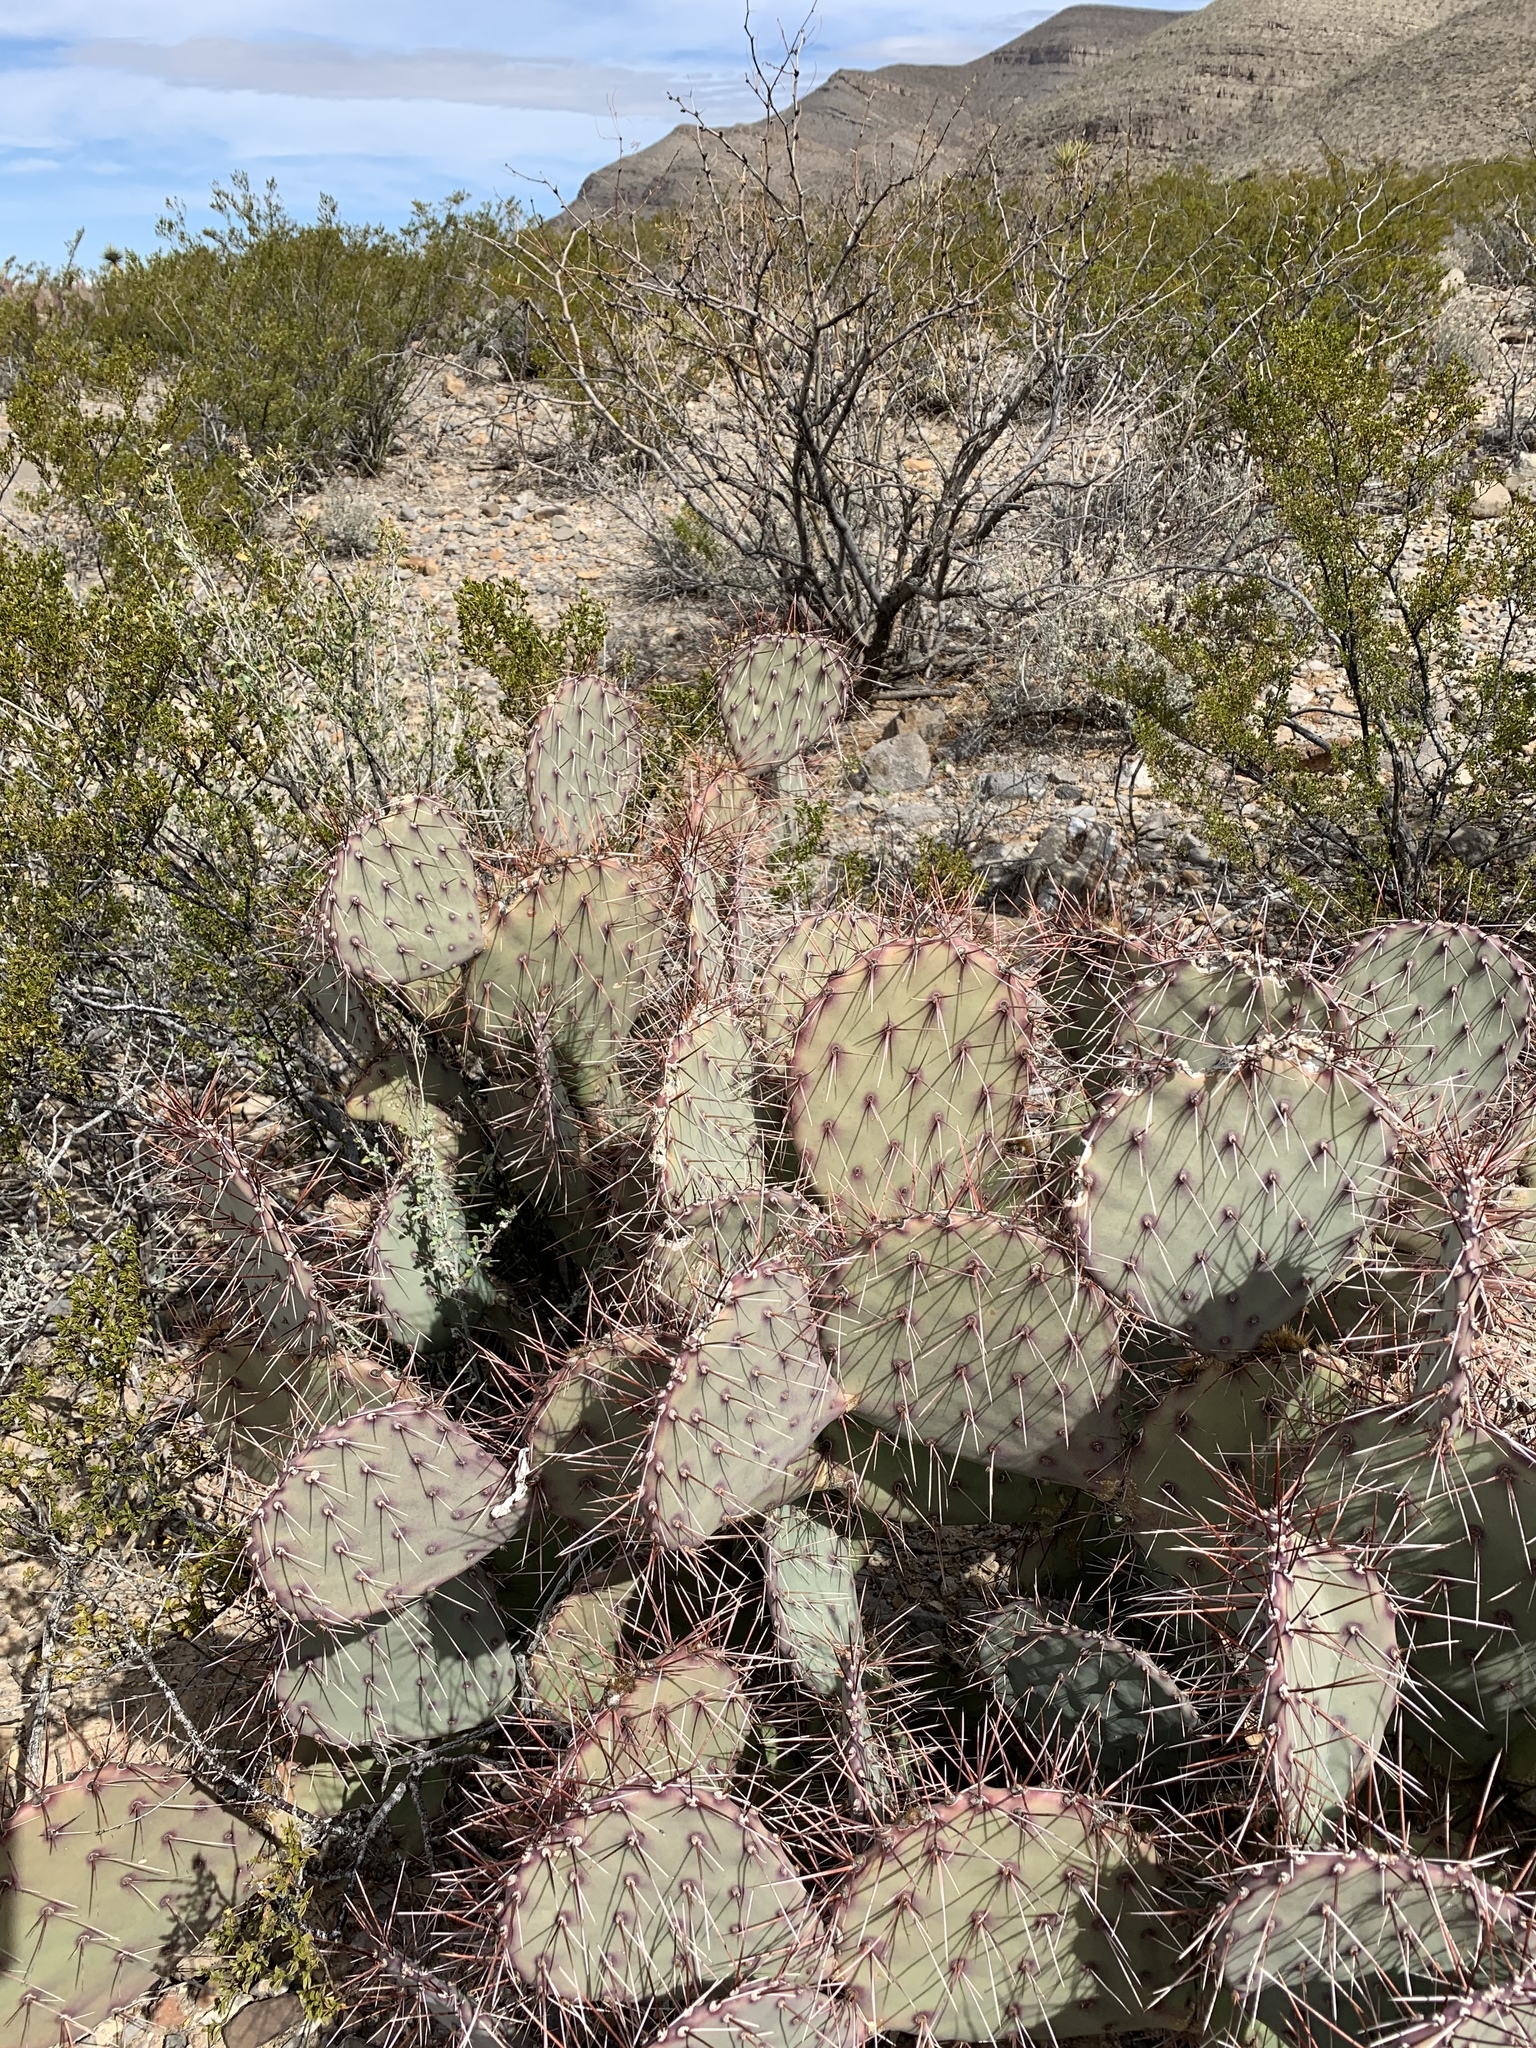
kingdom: Plantae
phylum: Tracheophyta
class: Magnoliopsida
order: Caryophyllales
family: Cactaceae
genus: Opuntia
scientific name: Opuntia macrocentra
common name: Purple prickly-pear
